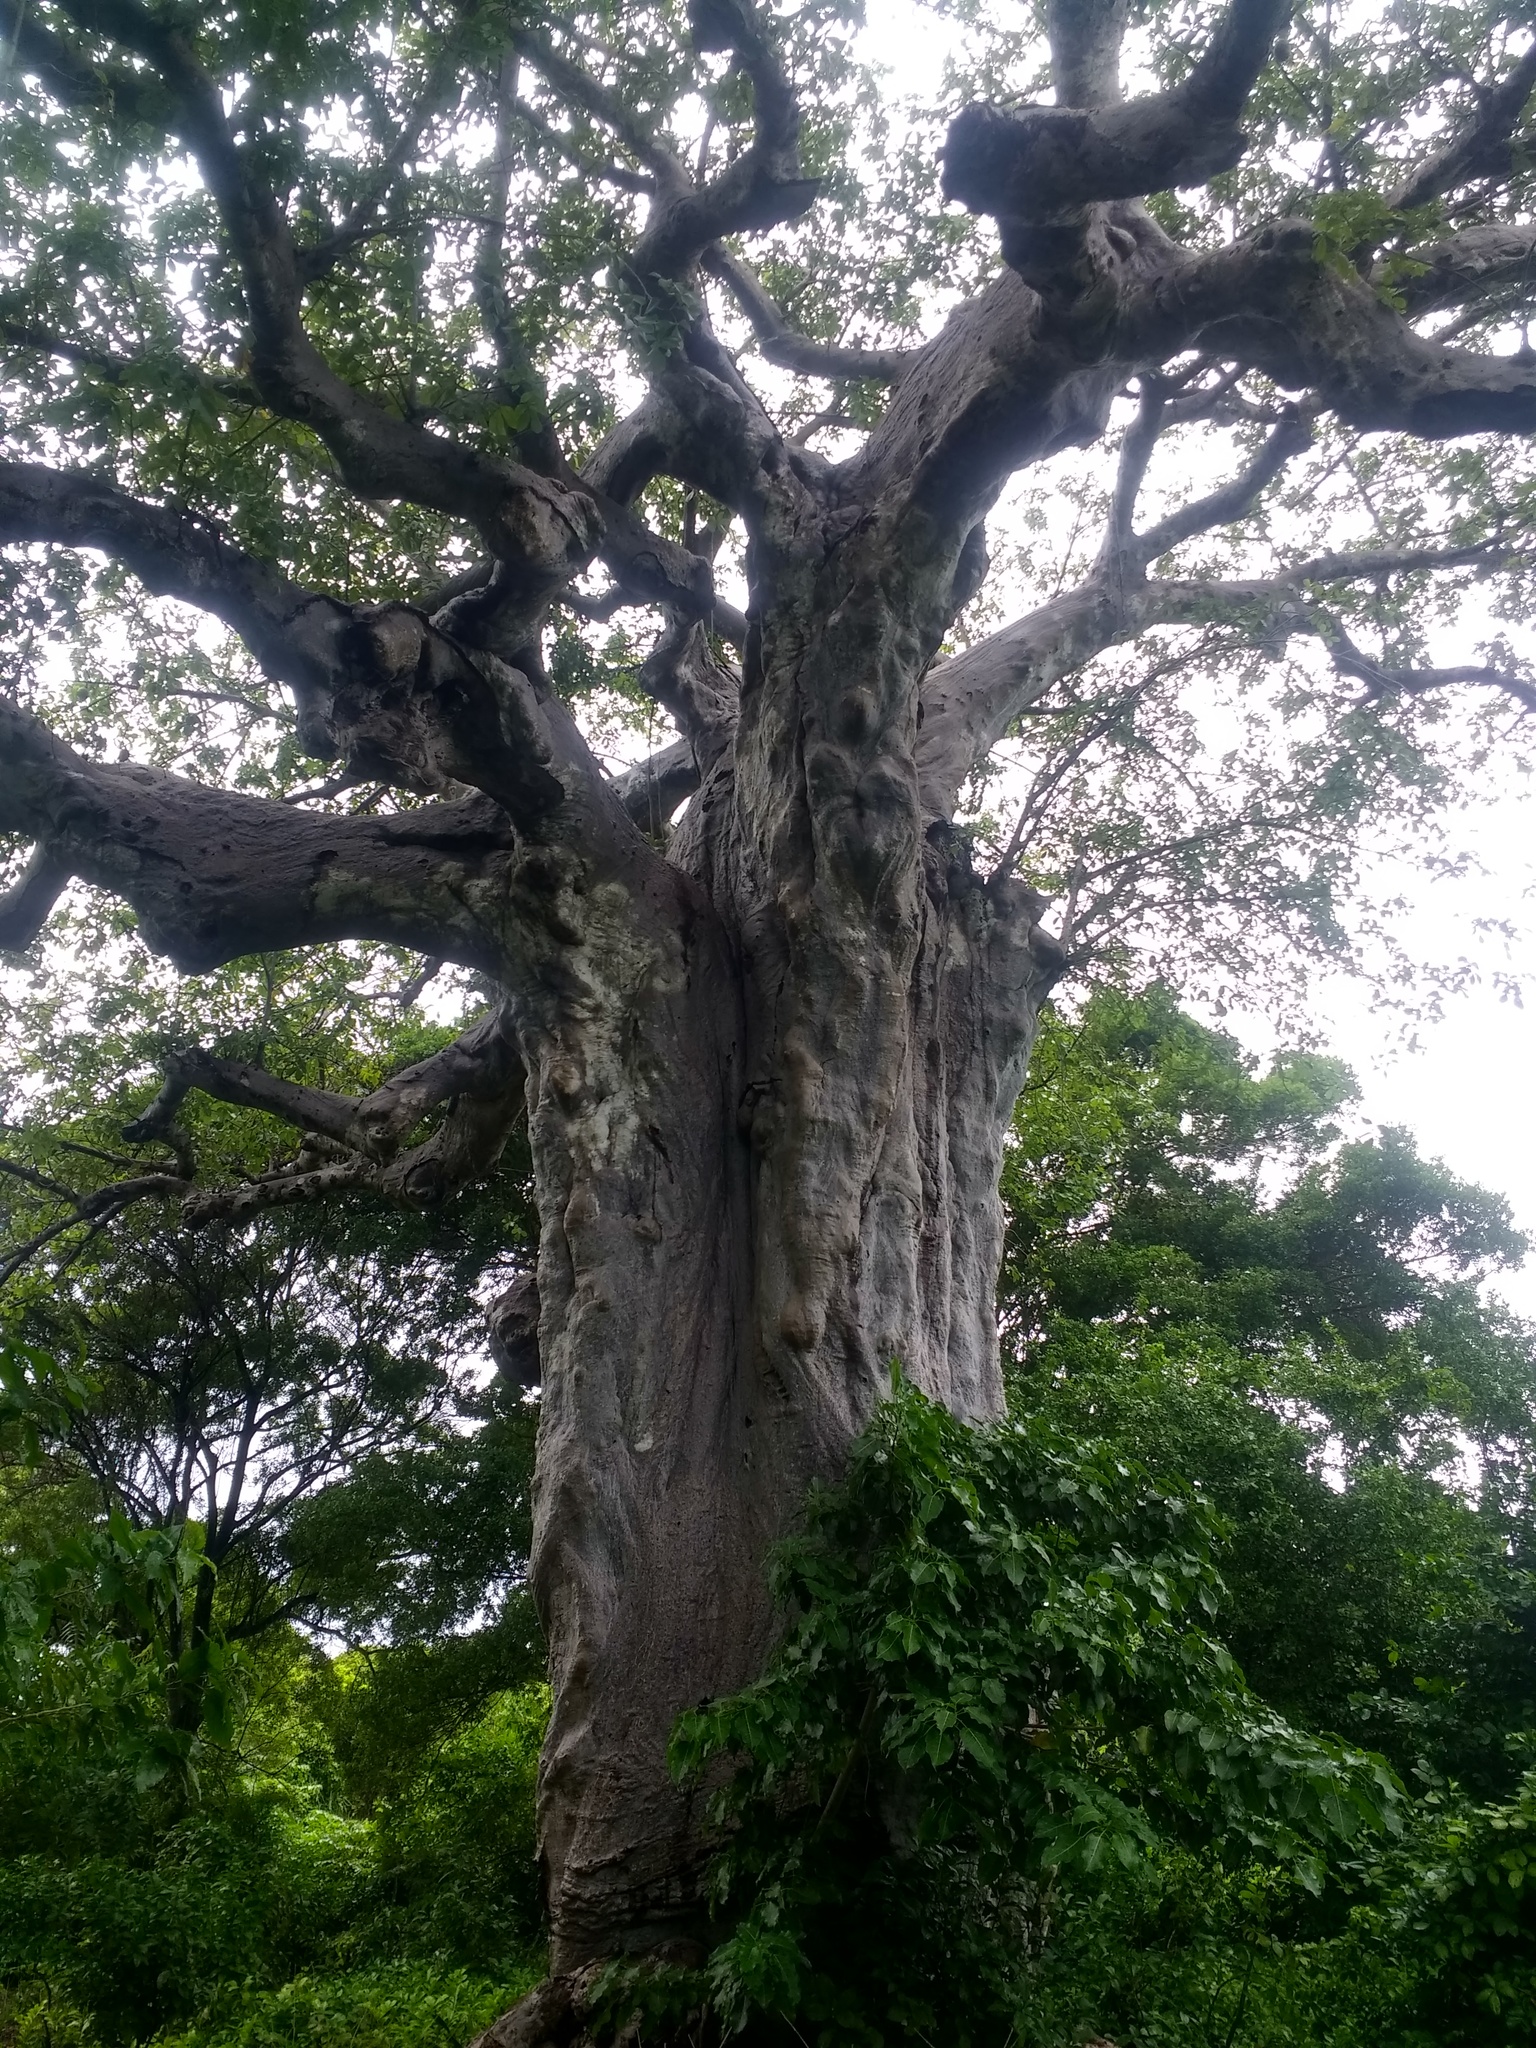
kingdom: Plantae
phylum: Tracheophyta
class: Magnoliopsida
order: Malvales
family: Malvaceae
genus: Adansonia
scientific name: Adansonia digitata
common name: Dead-rat-tree
